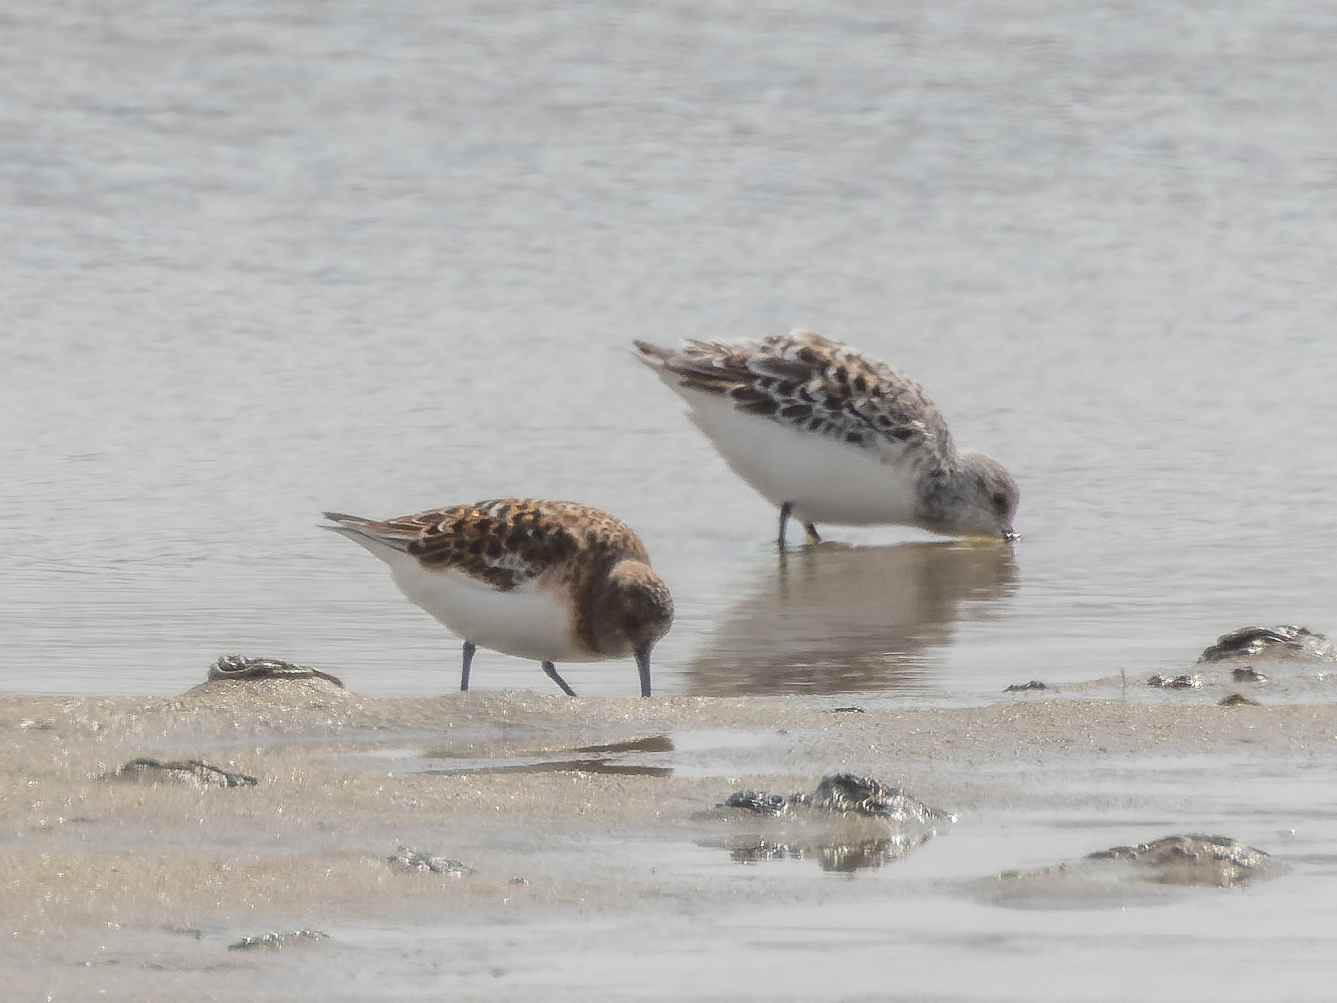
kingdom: Animalia
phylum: Chordata
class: Aves
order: Charadriiformes
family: Scolopacidae
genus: Calidris
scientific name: Calidris alba
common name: Sanderling
